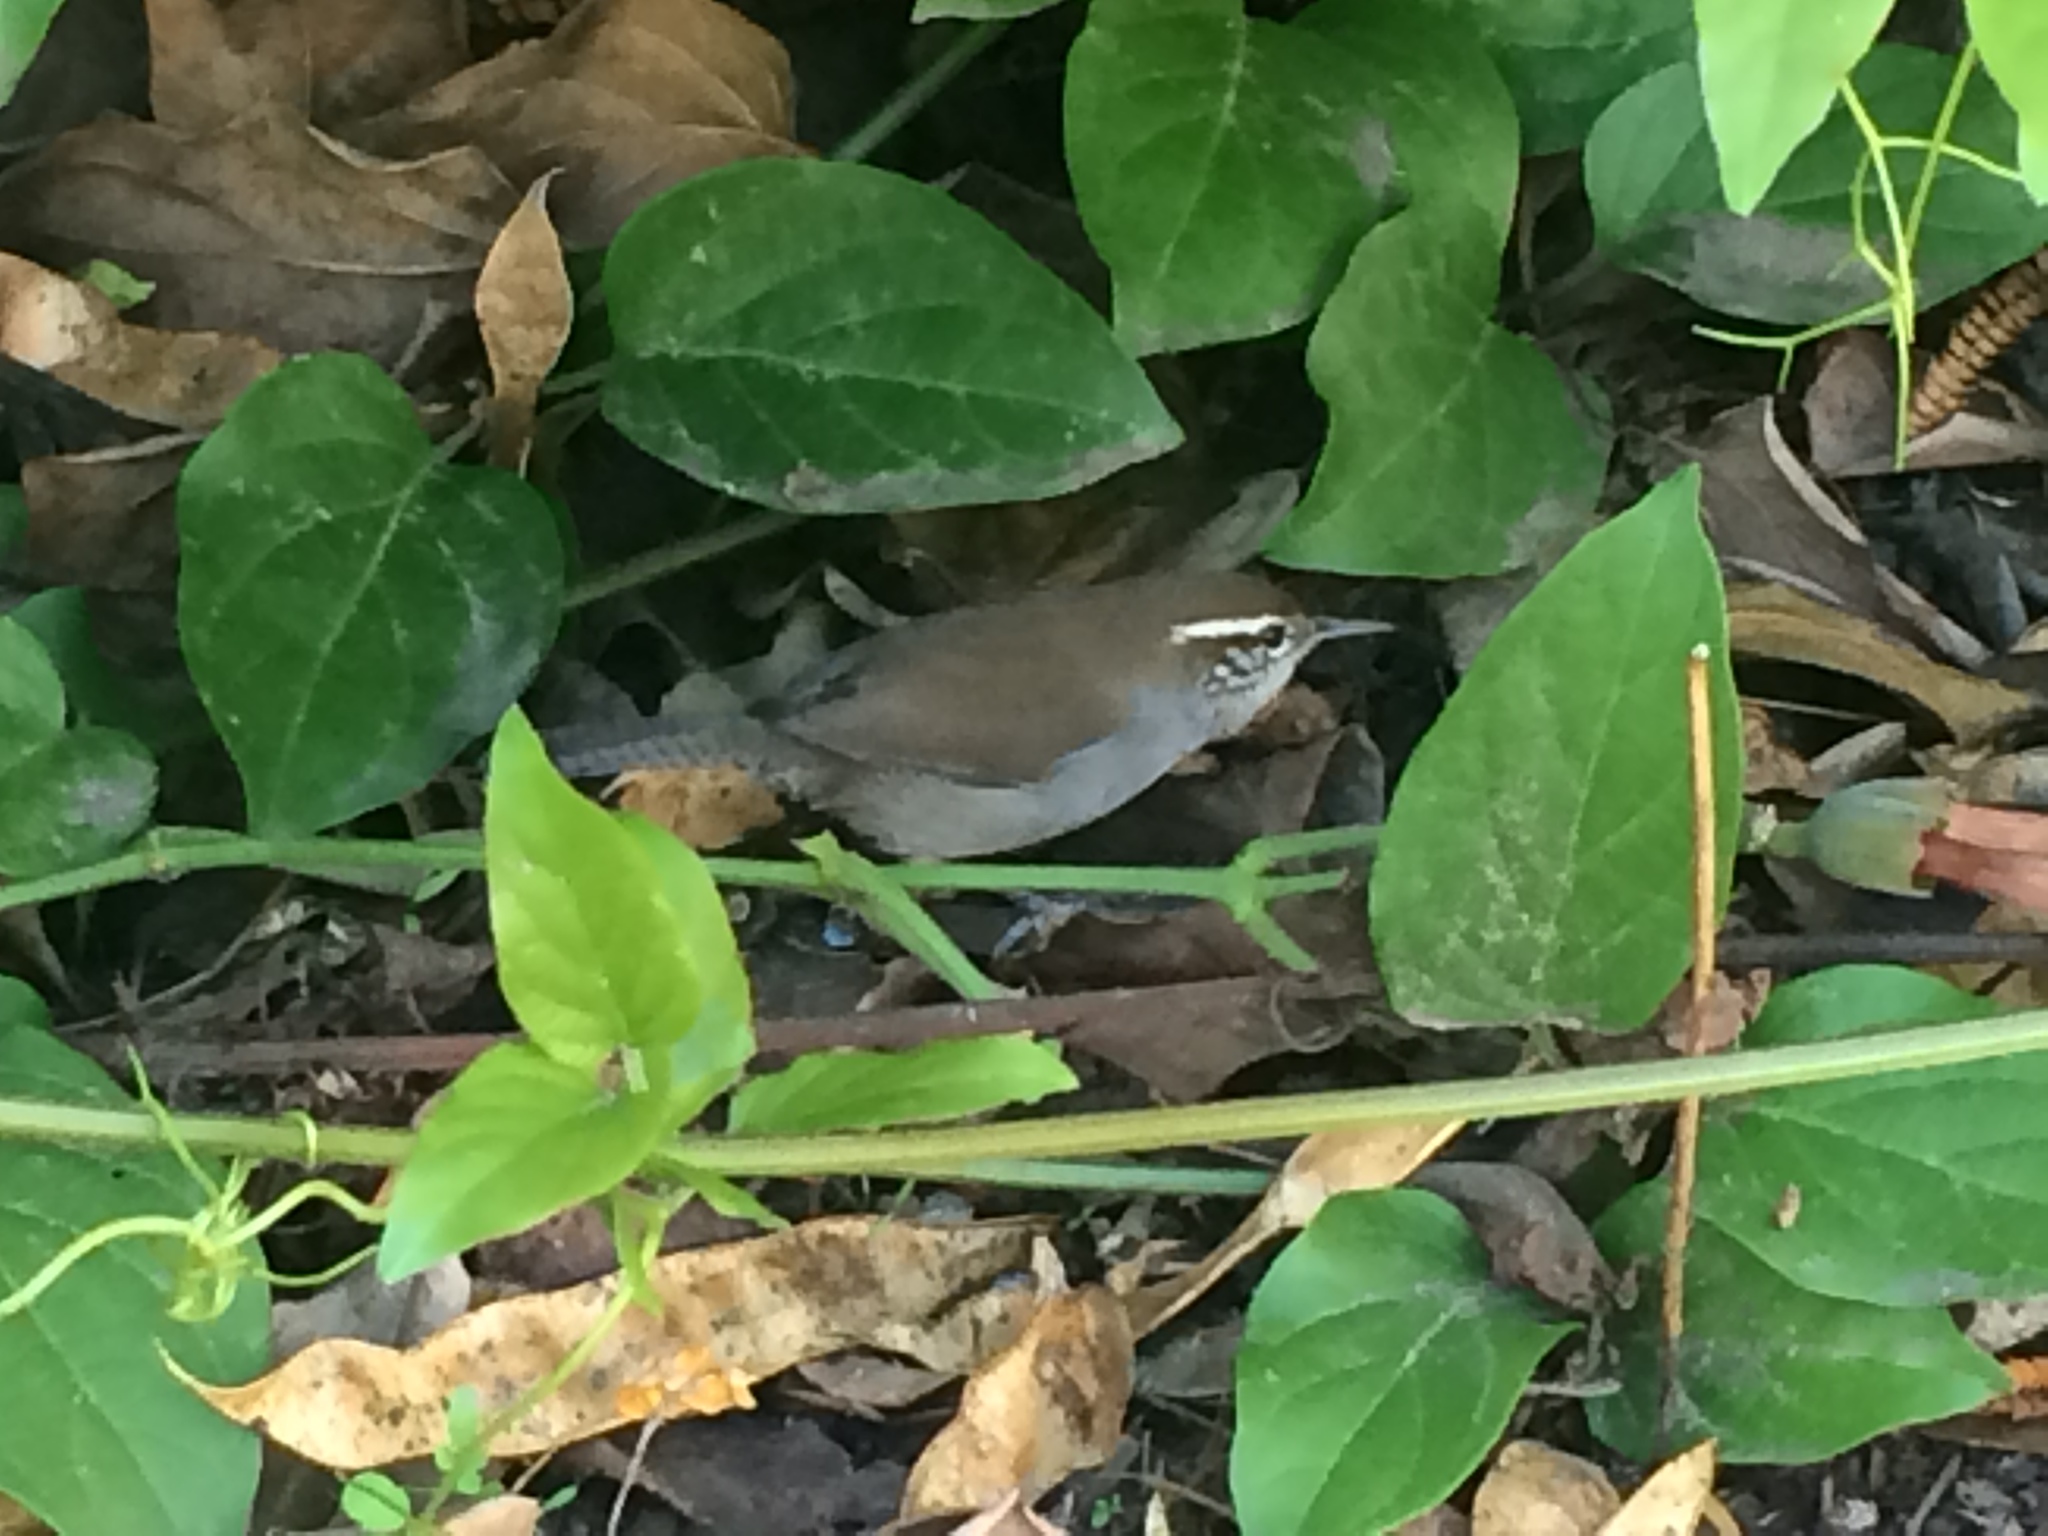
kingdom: Animalia
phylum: Chordata
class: Aves
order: Passeriformes
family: Troglodytidae
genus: Thryomanes
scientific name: Thryomanes bewickii
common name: Bewick's wren
